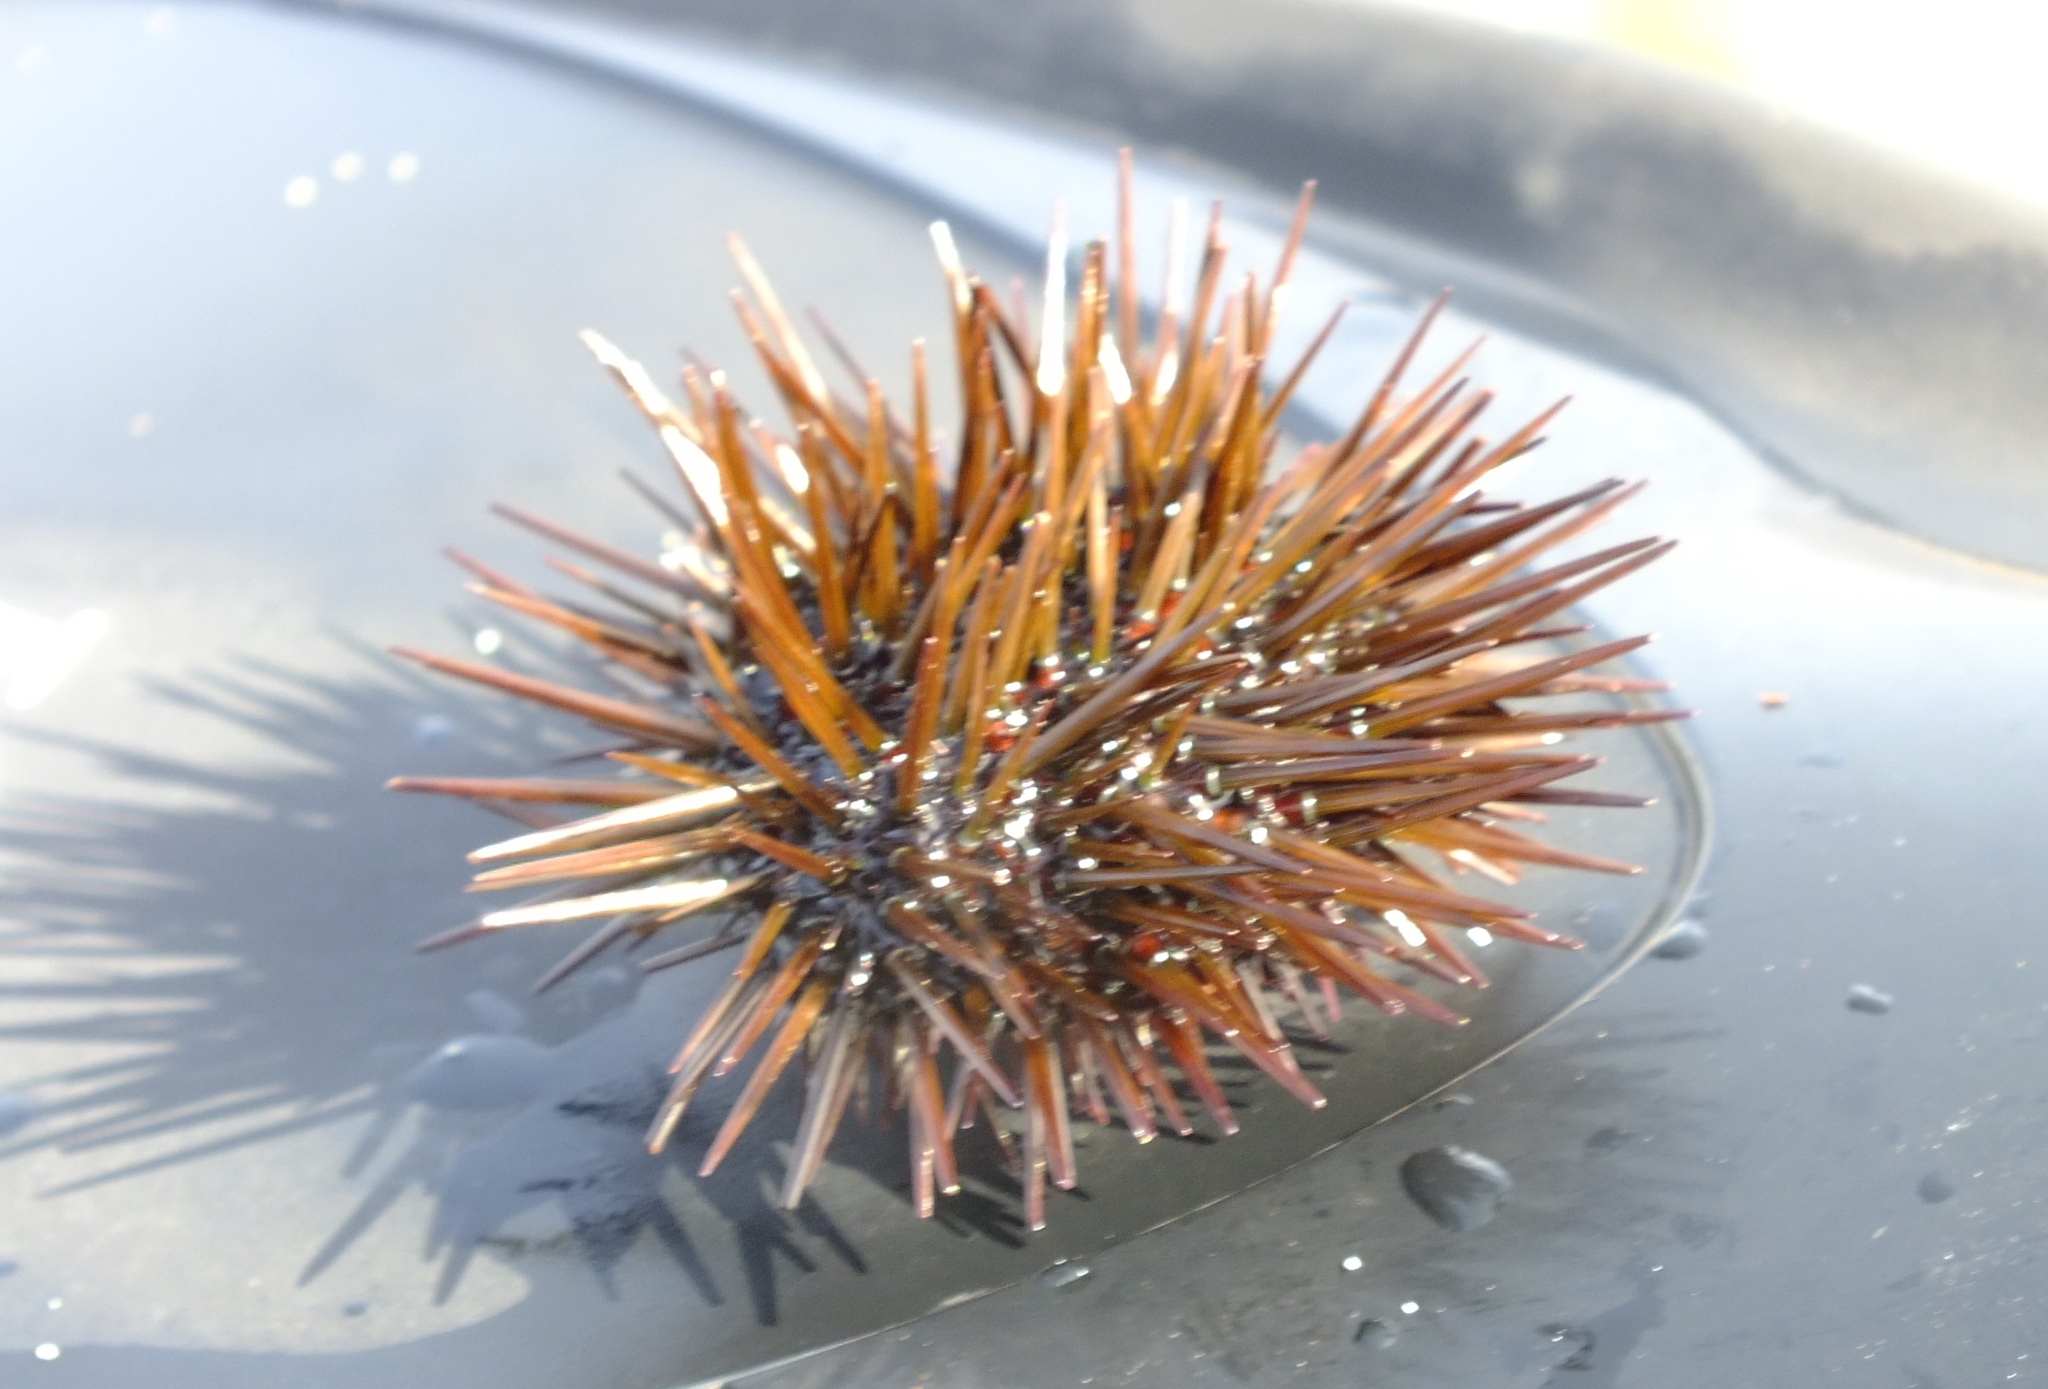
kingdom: Animalia
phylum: Echinodermata
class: Echinoidea
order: Camarodonta
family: Parechinidae
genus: Paracentrotus
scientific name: Paracentrotus lividus
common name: Purple sea urchin
